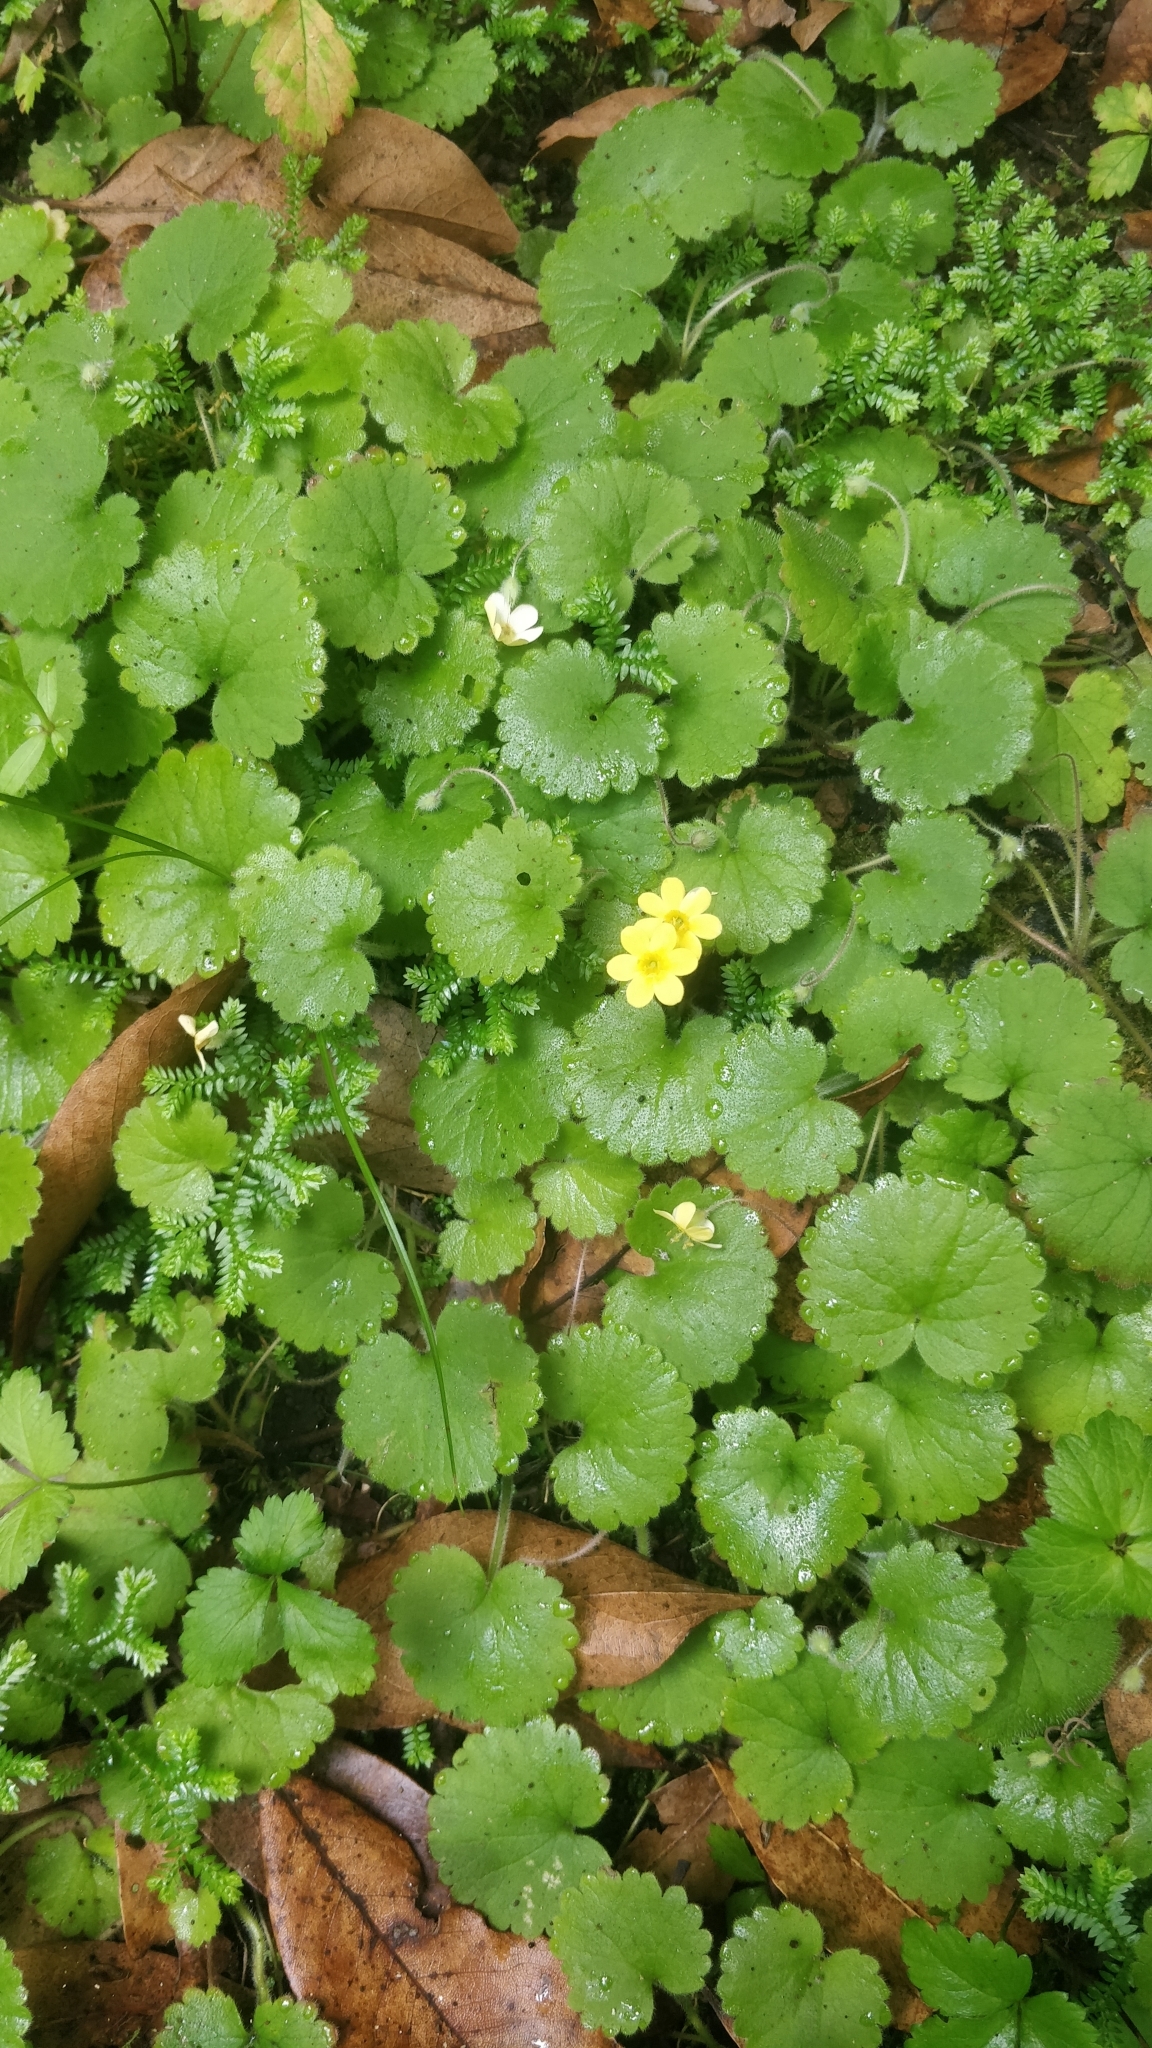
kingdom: Plantae
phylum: Tracheophyta
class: Magnoliopsida
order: Lamiales
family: Plantaginaceae
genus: Sibthorpia
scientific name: Sibthorpia peregrina
